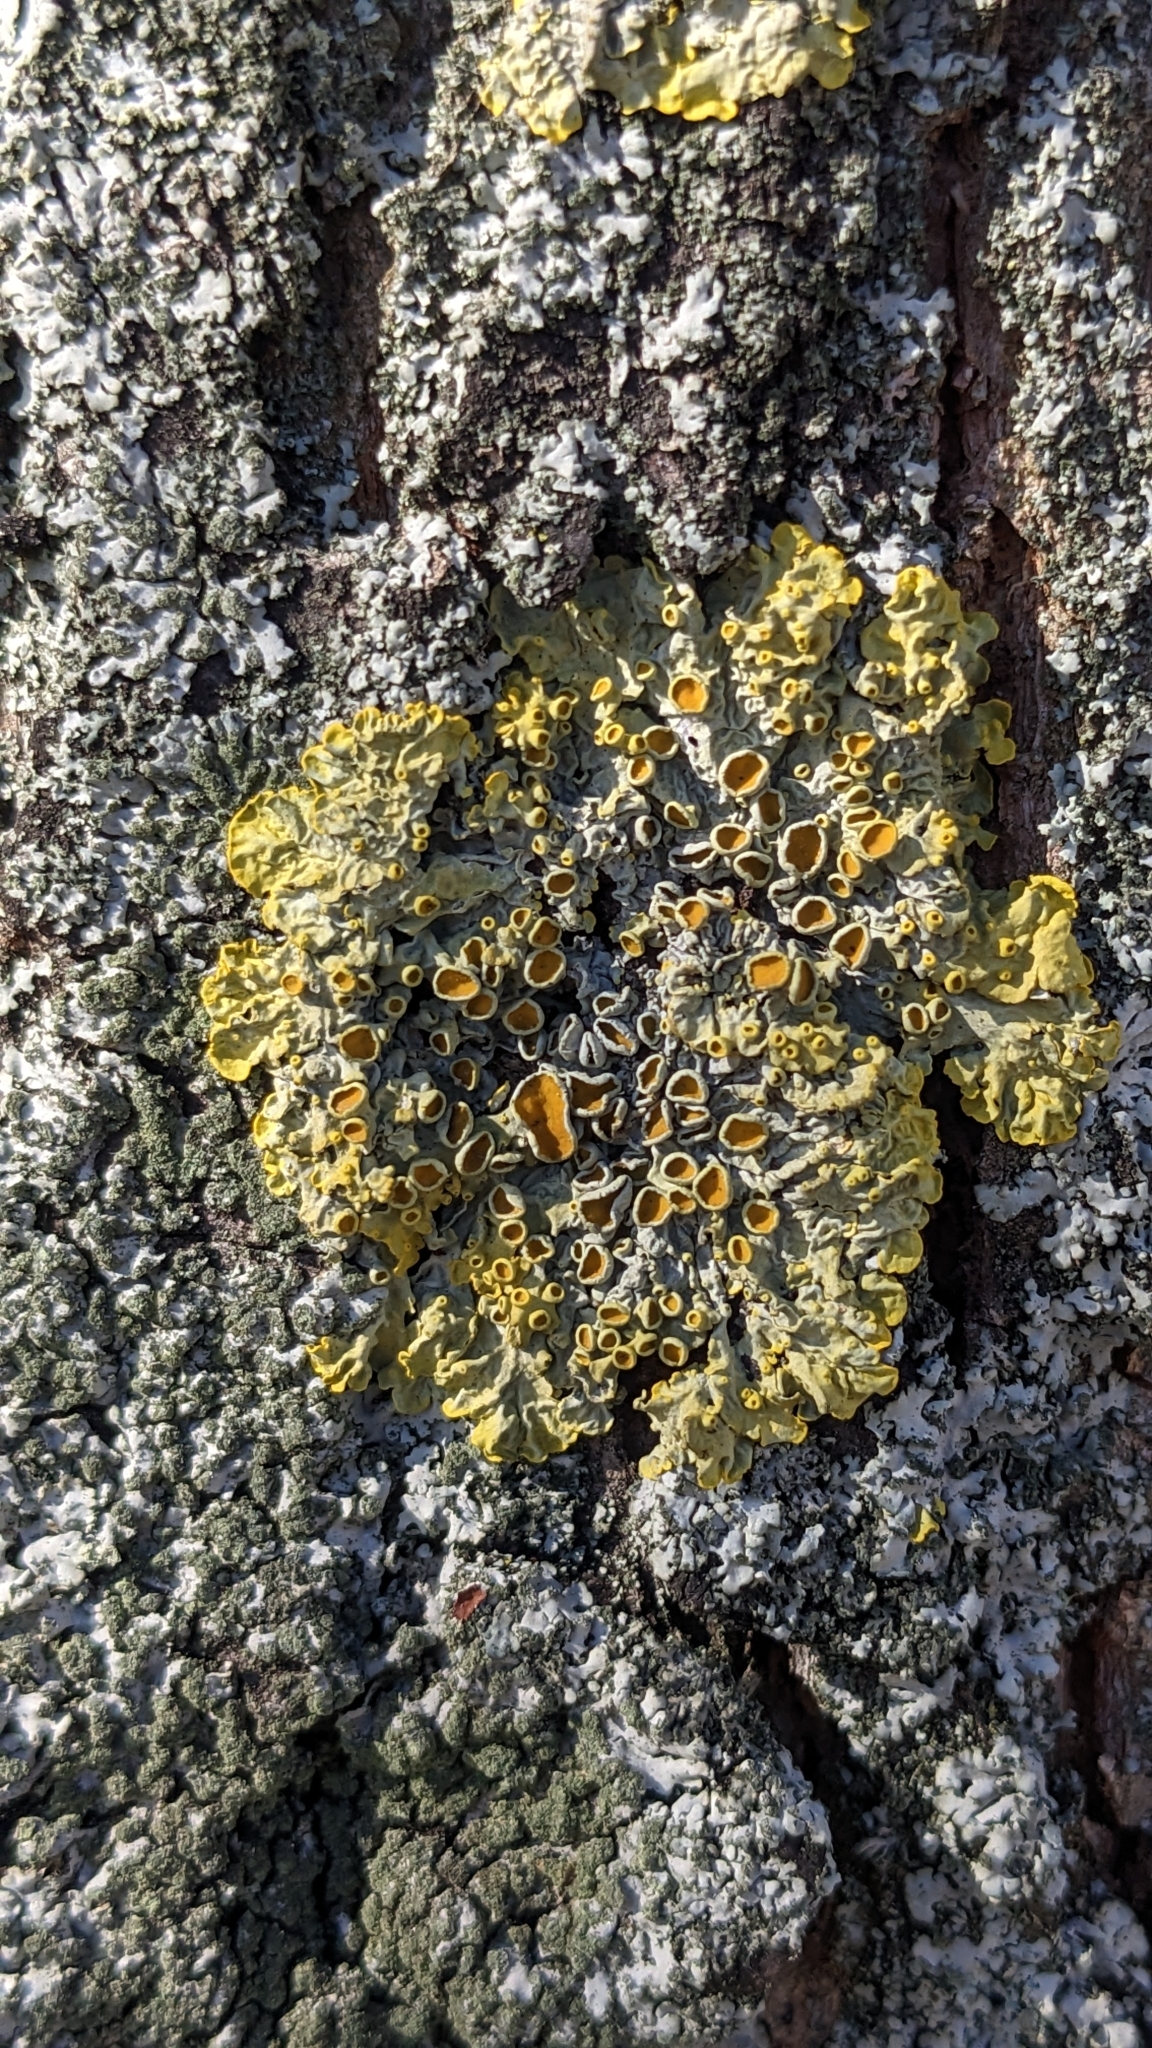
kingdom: Fungi
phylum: Ascomycota
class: Lecanoromycetes
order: Teloschistales
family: Teloschistaceae
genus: Xanthoria
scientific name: Xanthoria parietina
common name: Common orange lichen
